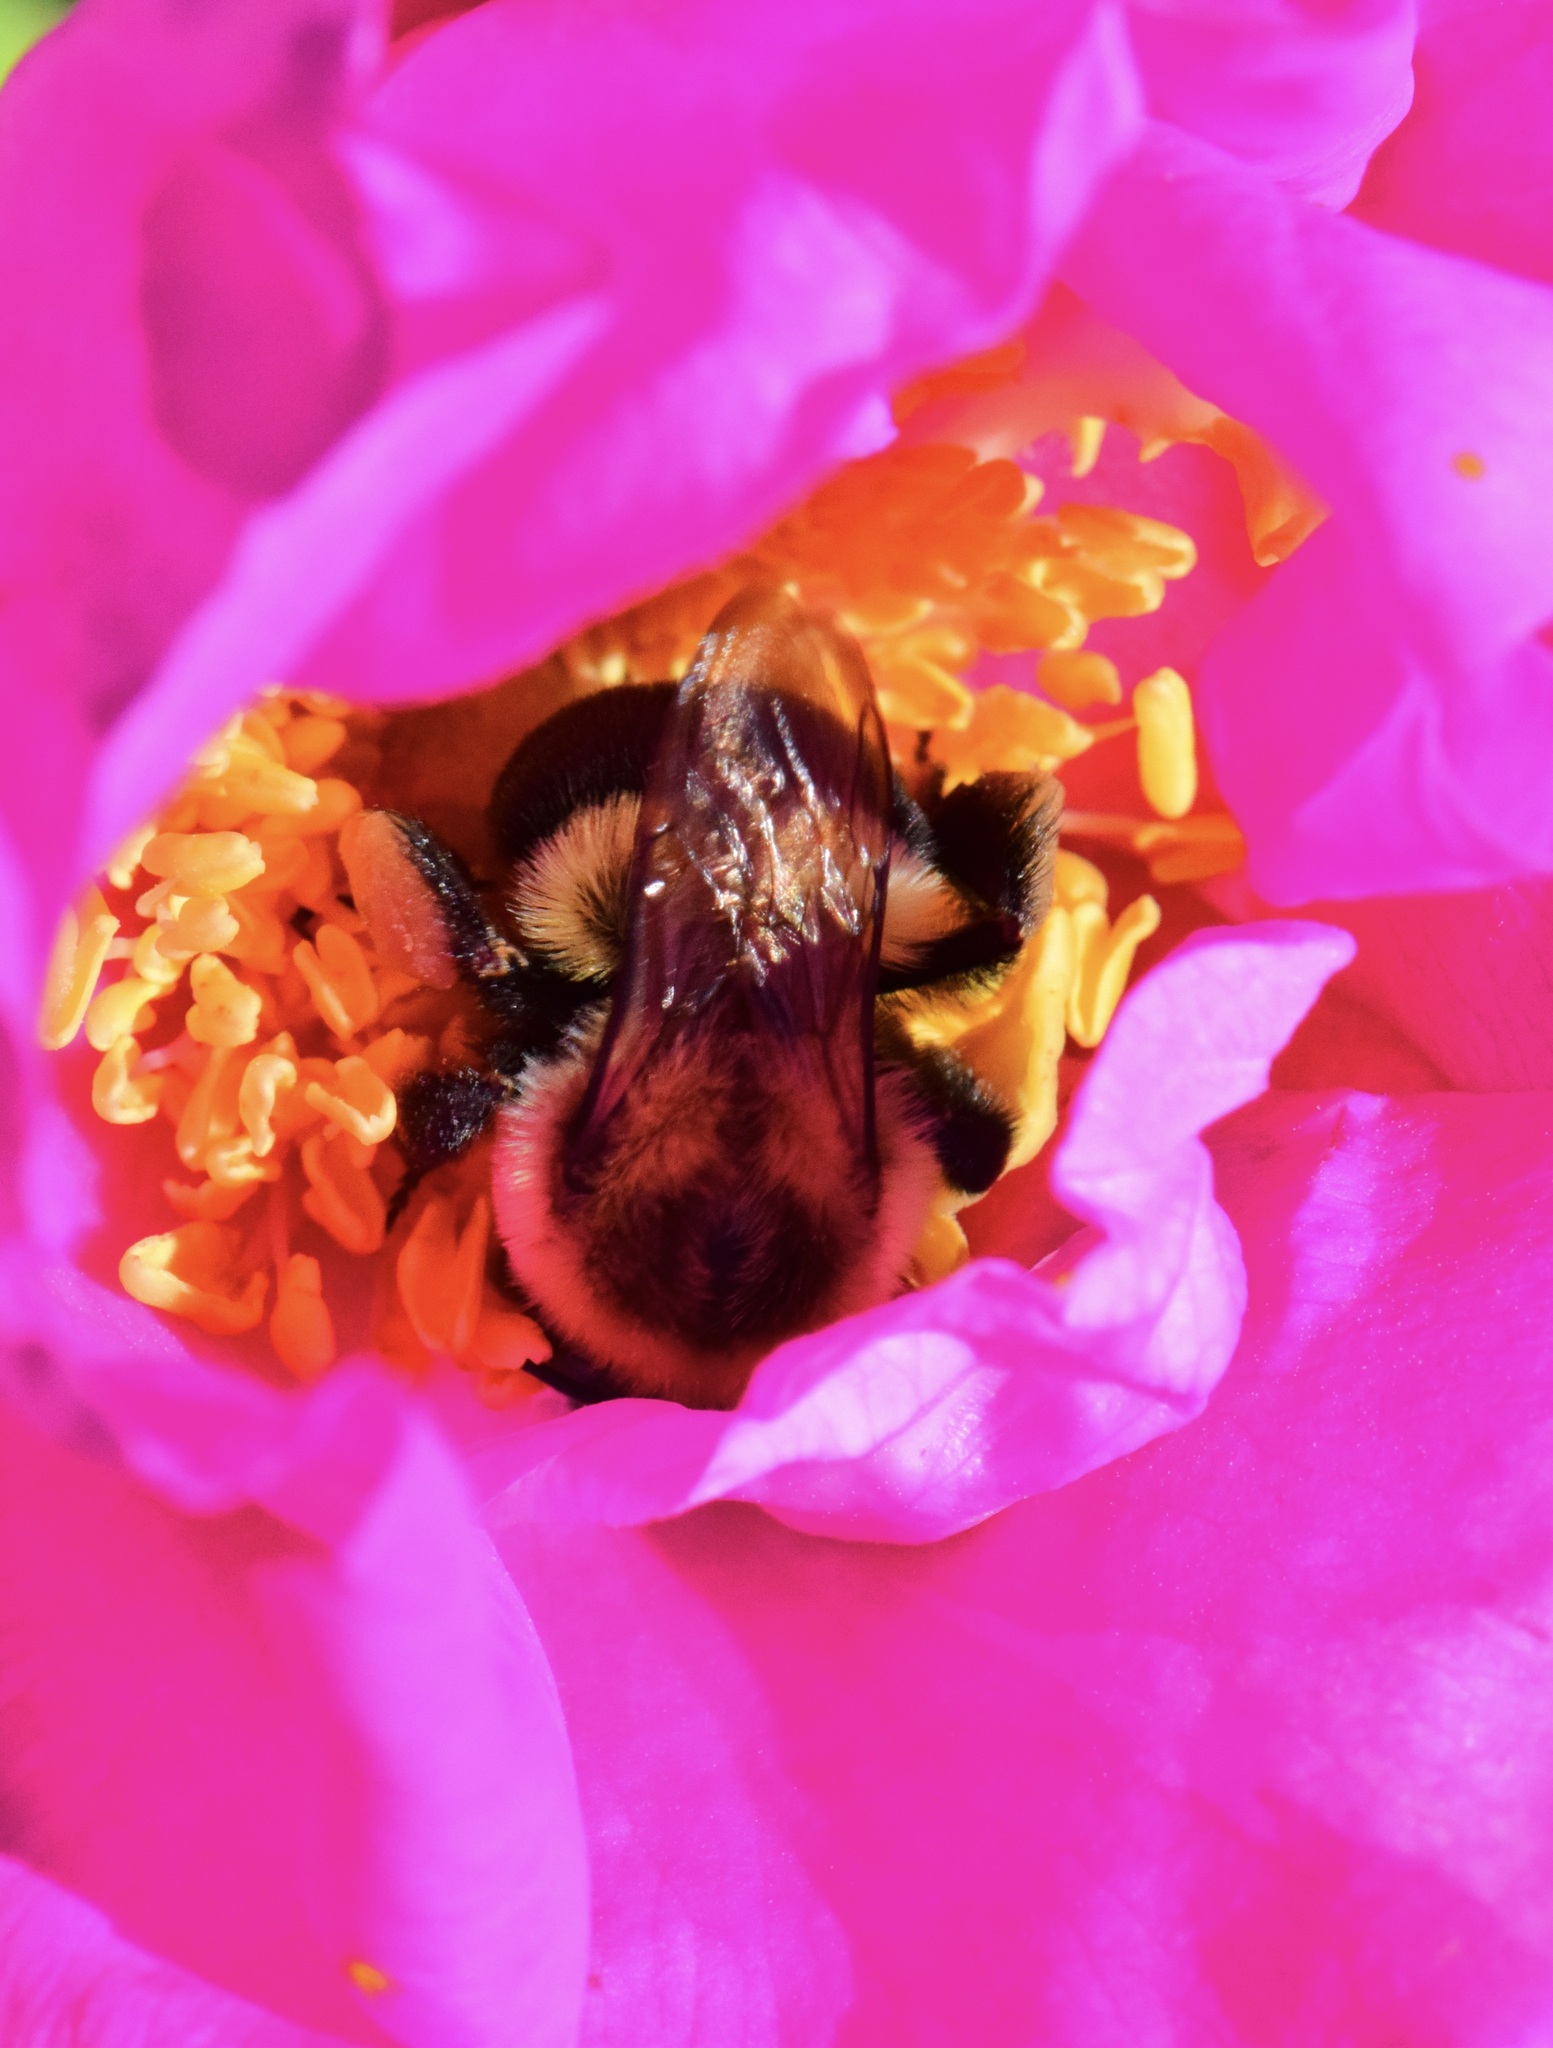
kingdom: Animalia
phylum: Arthropoda
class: Insecta
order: Hymenoptera
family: Apidae
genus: Bombus
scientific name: Bombus impatiens
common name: Common eastern bumble bee
